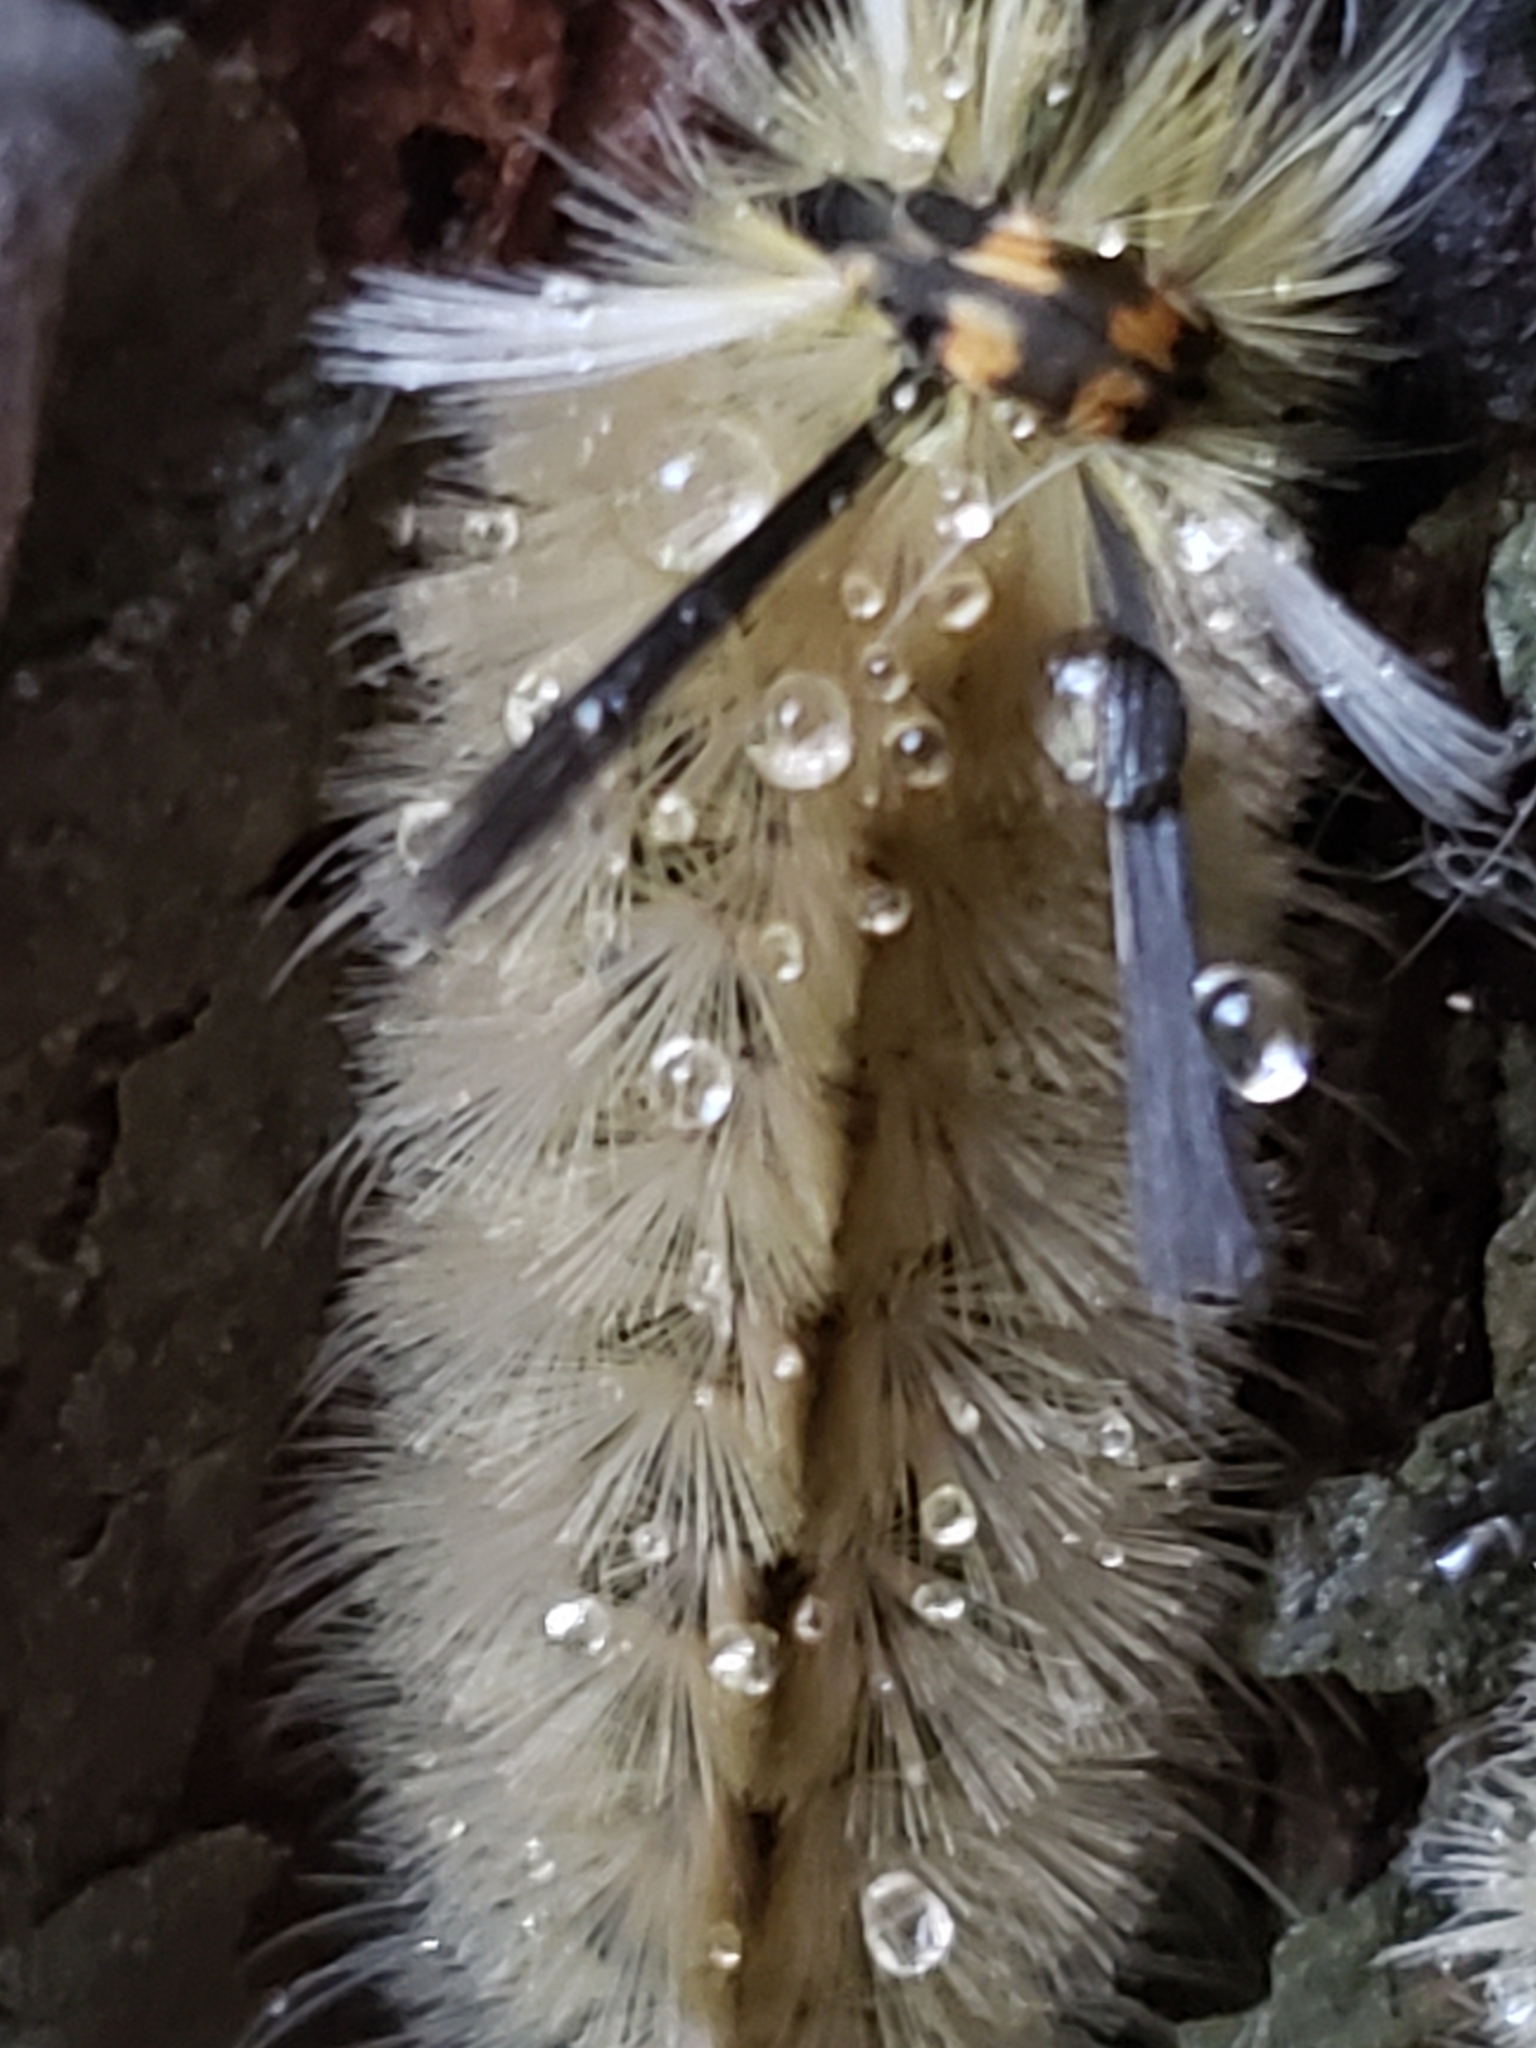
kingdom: Animalia
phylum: Arthropoda
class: Insecta
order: Lepidoptera
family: Erebidae
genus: Halysidota
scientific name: Halysidota tessellaris
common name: Banded tussock moth
